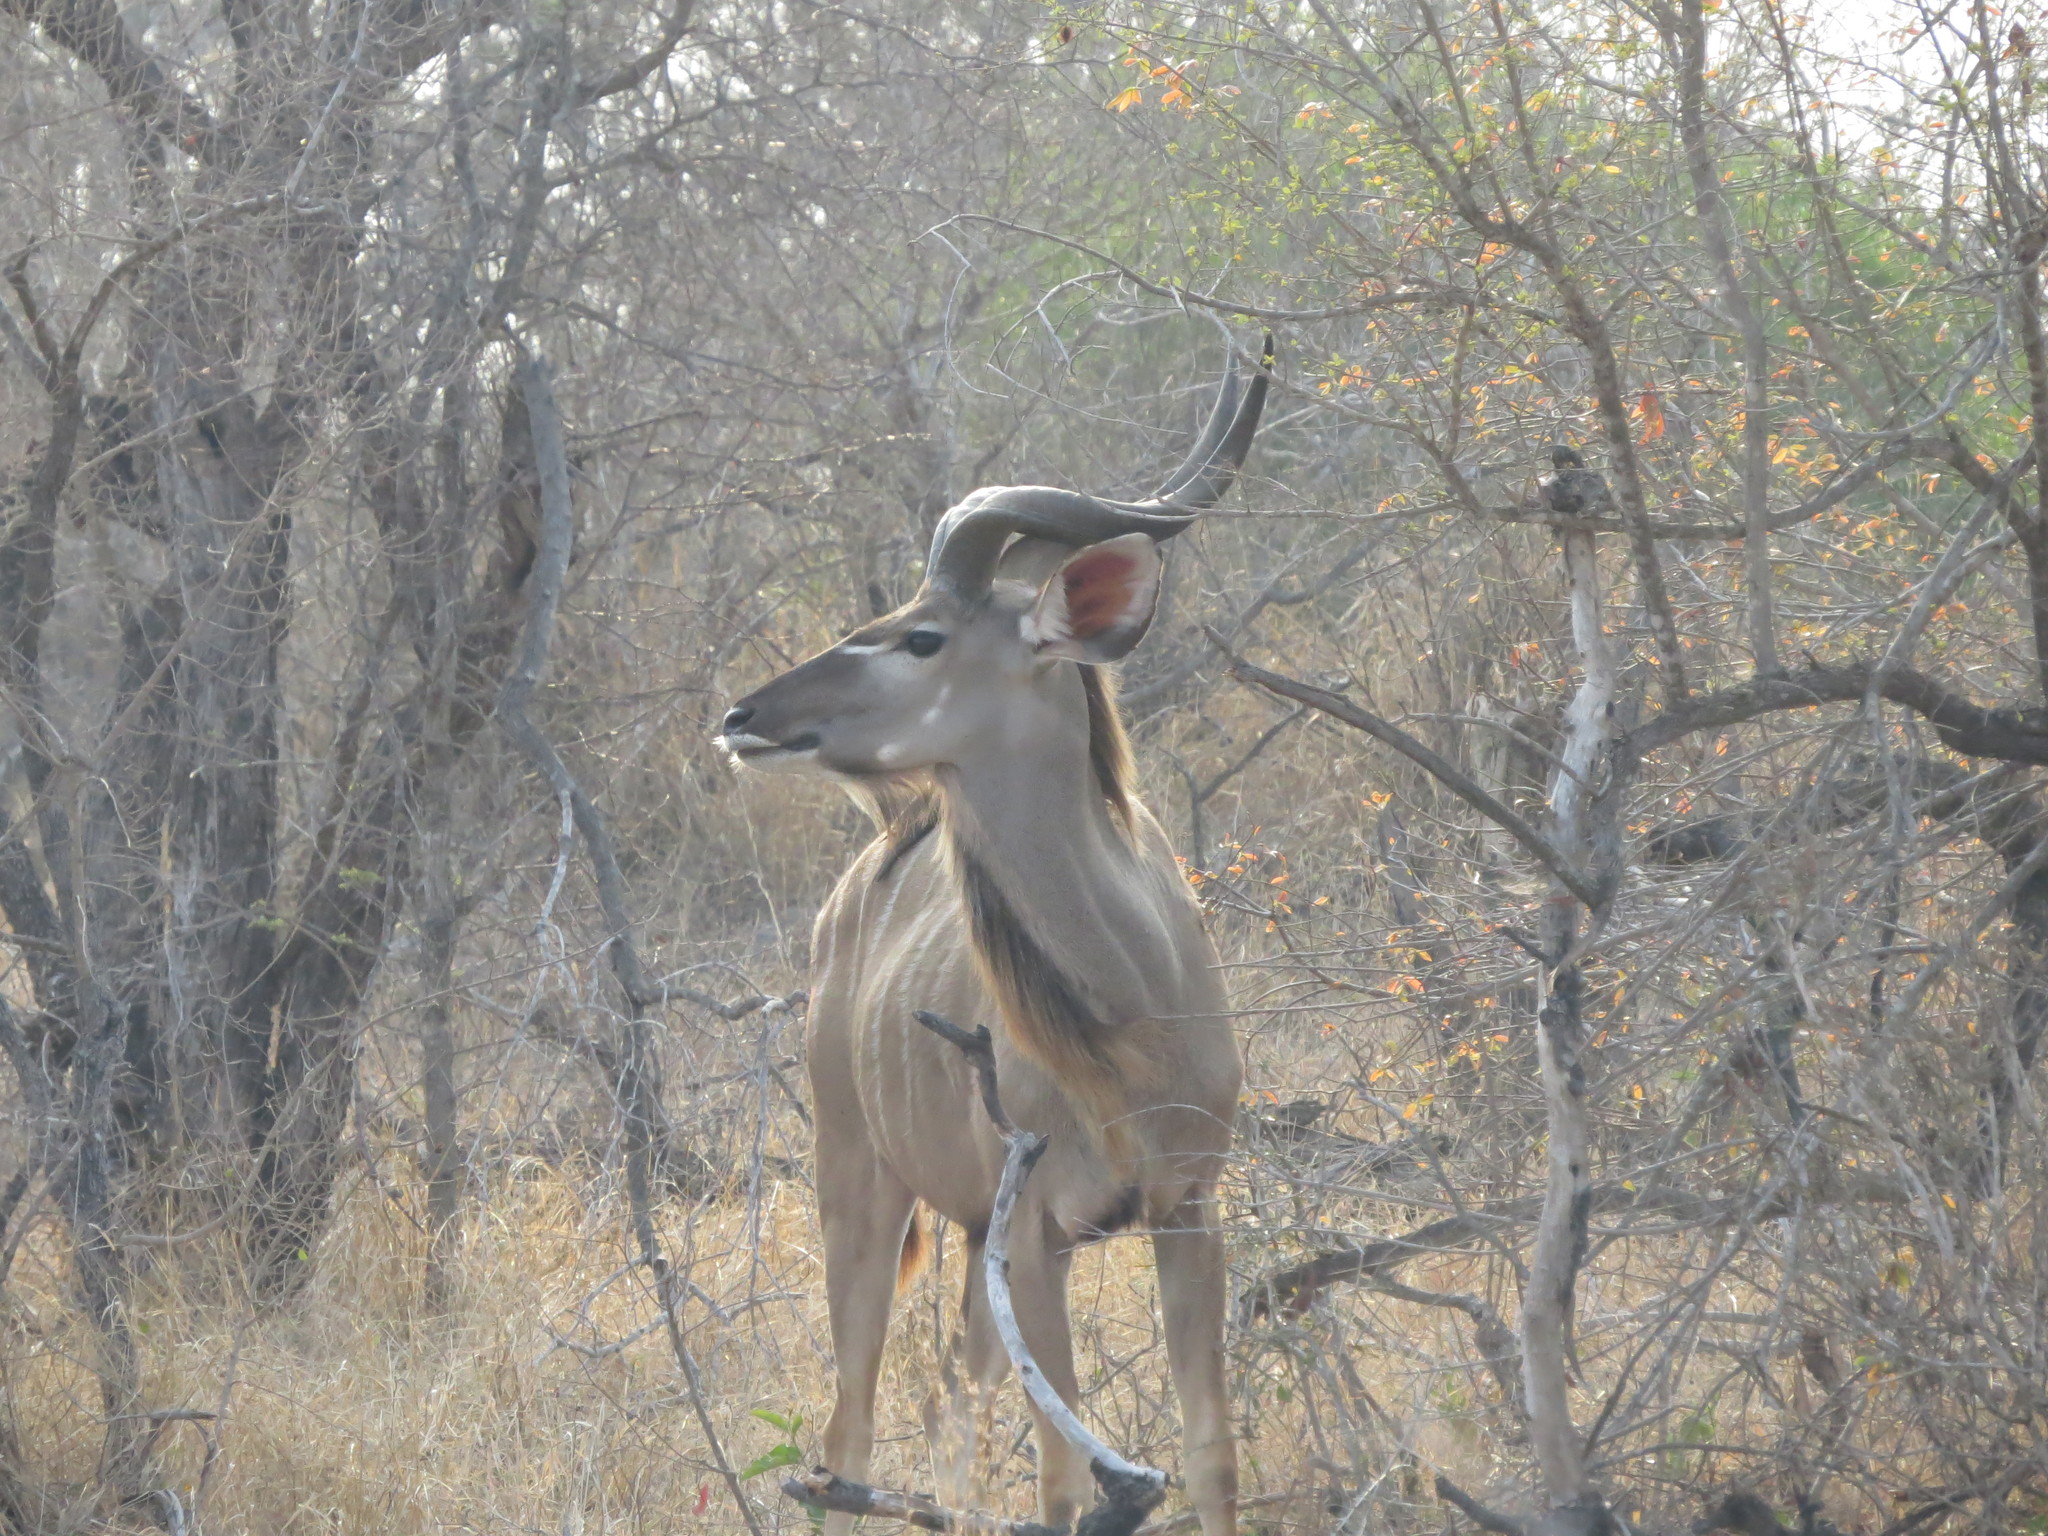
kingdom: Animalia
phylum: Chordata
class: Mammalia
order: Artiodactyla
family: Bovidae
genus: Tragelaphus
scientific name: Tragelaphus strepsiceros
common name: Greater kudu
